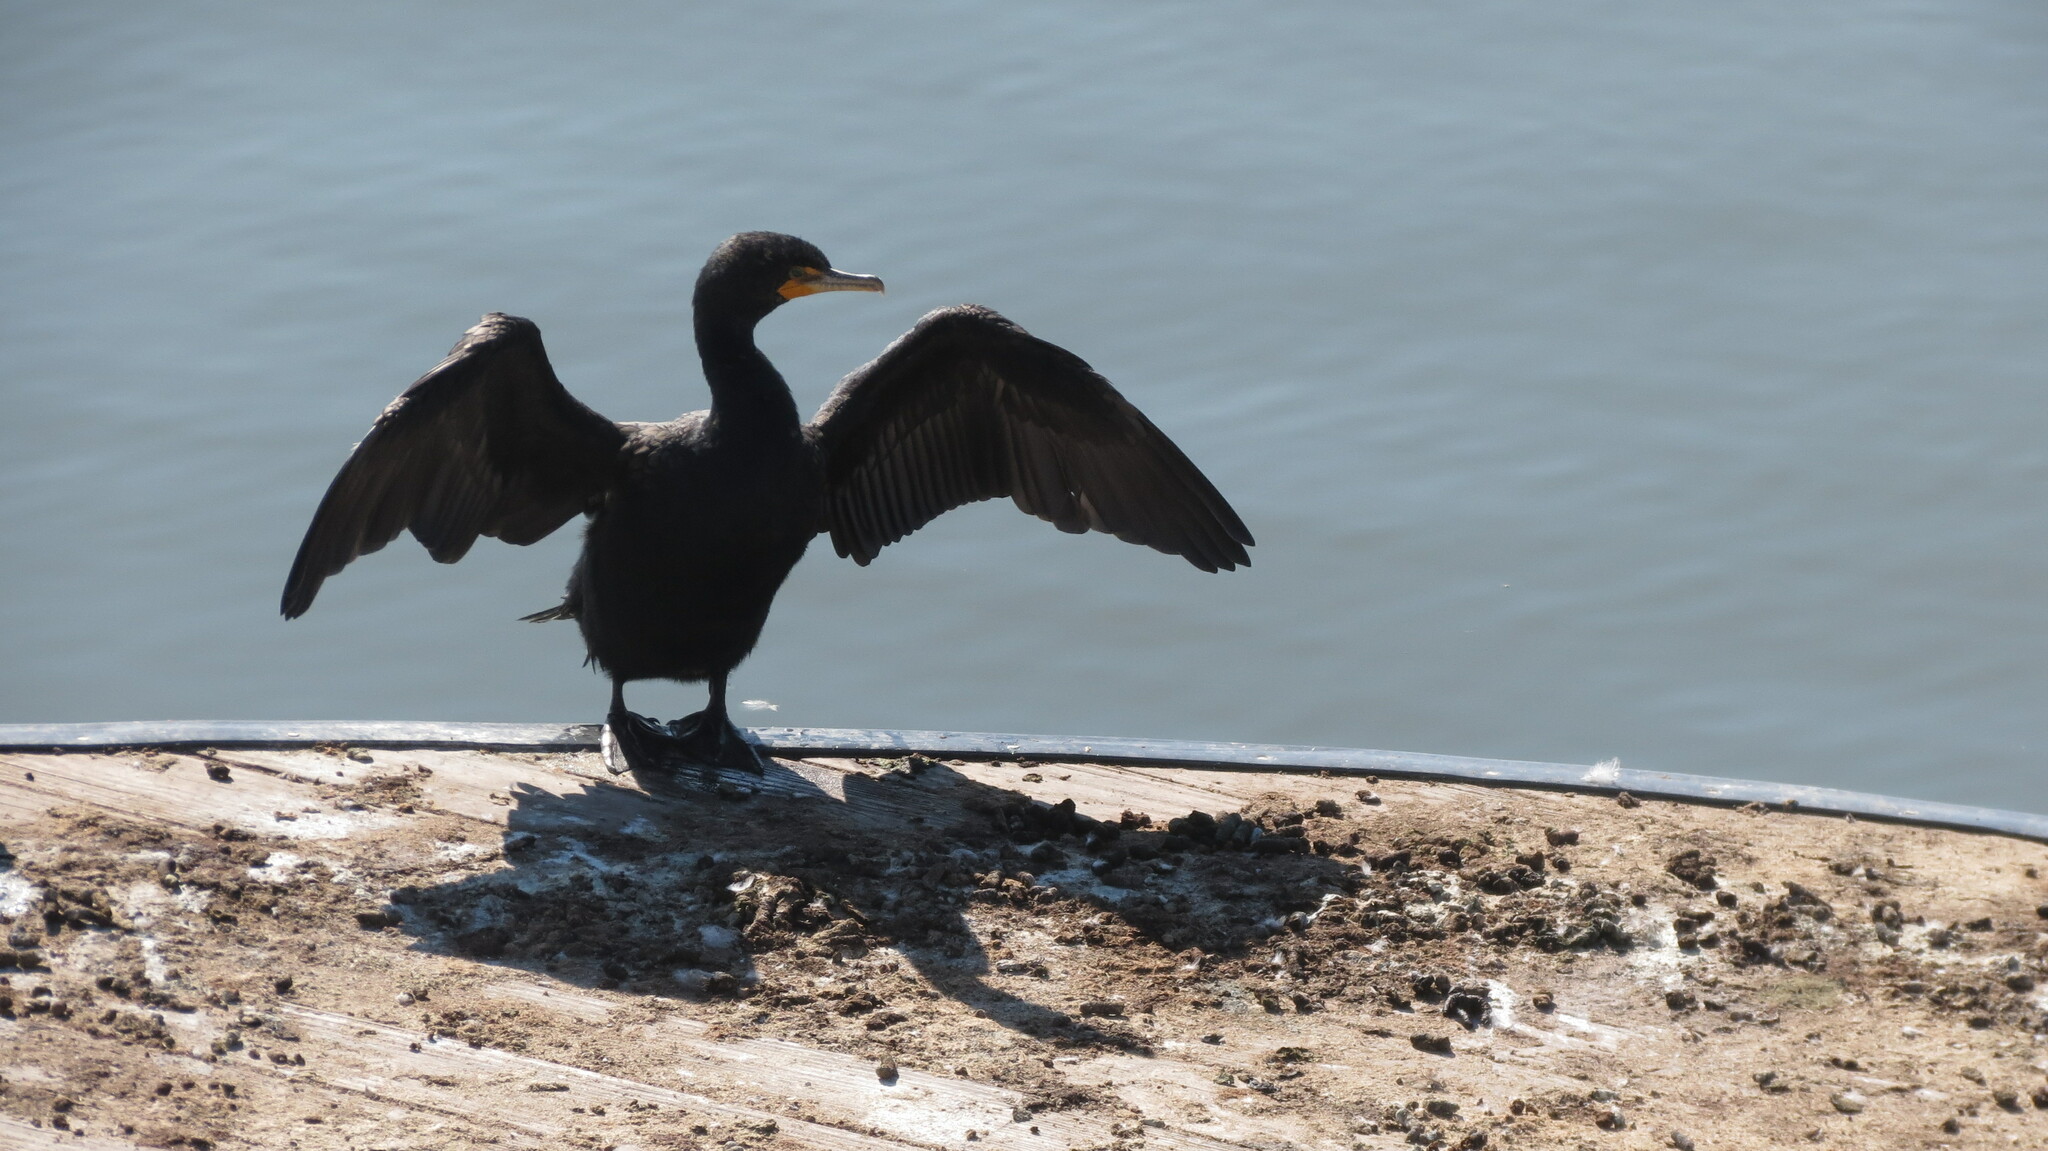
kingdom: Animalia
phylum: Chordata
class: Aves
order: Suliformes
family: Phalacrocoracidae
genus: Phalacrocorax
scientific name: Phalacrocorax auritus
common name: Double-crested cormorant
